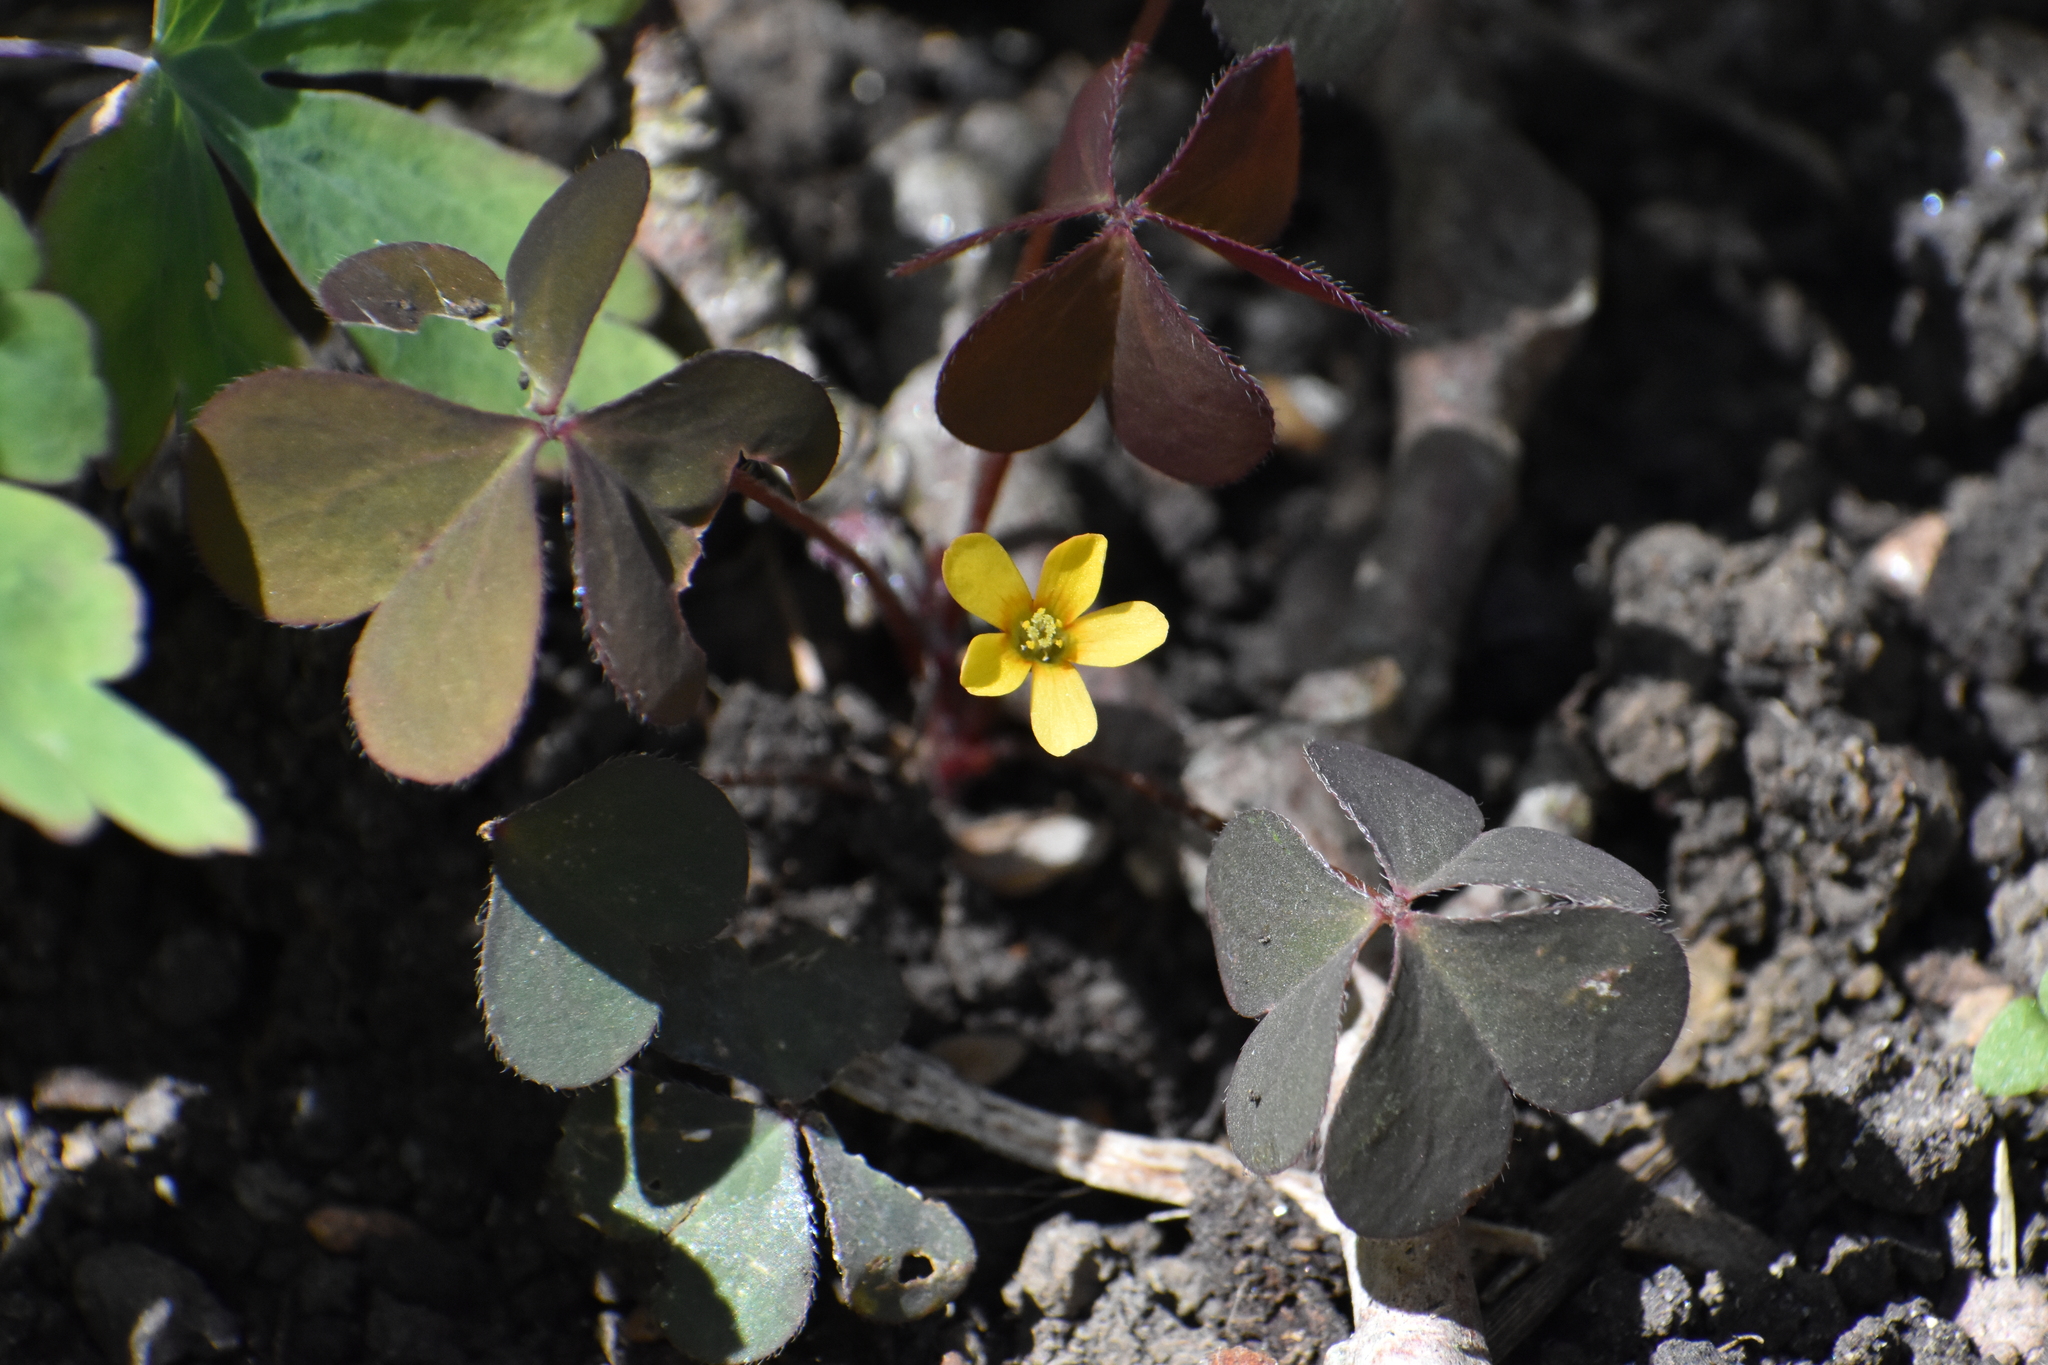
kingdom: Plantae
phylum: Tracheophyta
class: Magnoliopsida
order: Oxalidales
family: Oxalidaceae
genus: Oxalis
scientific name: Oxalis corniculata
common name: Procumbent yellow-sorrel
